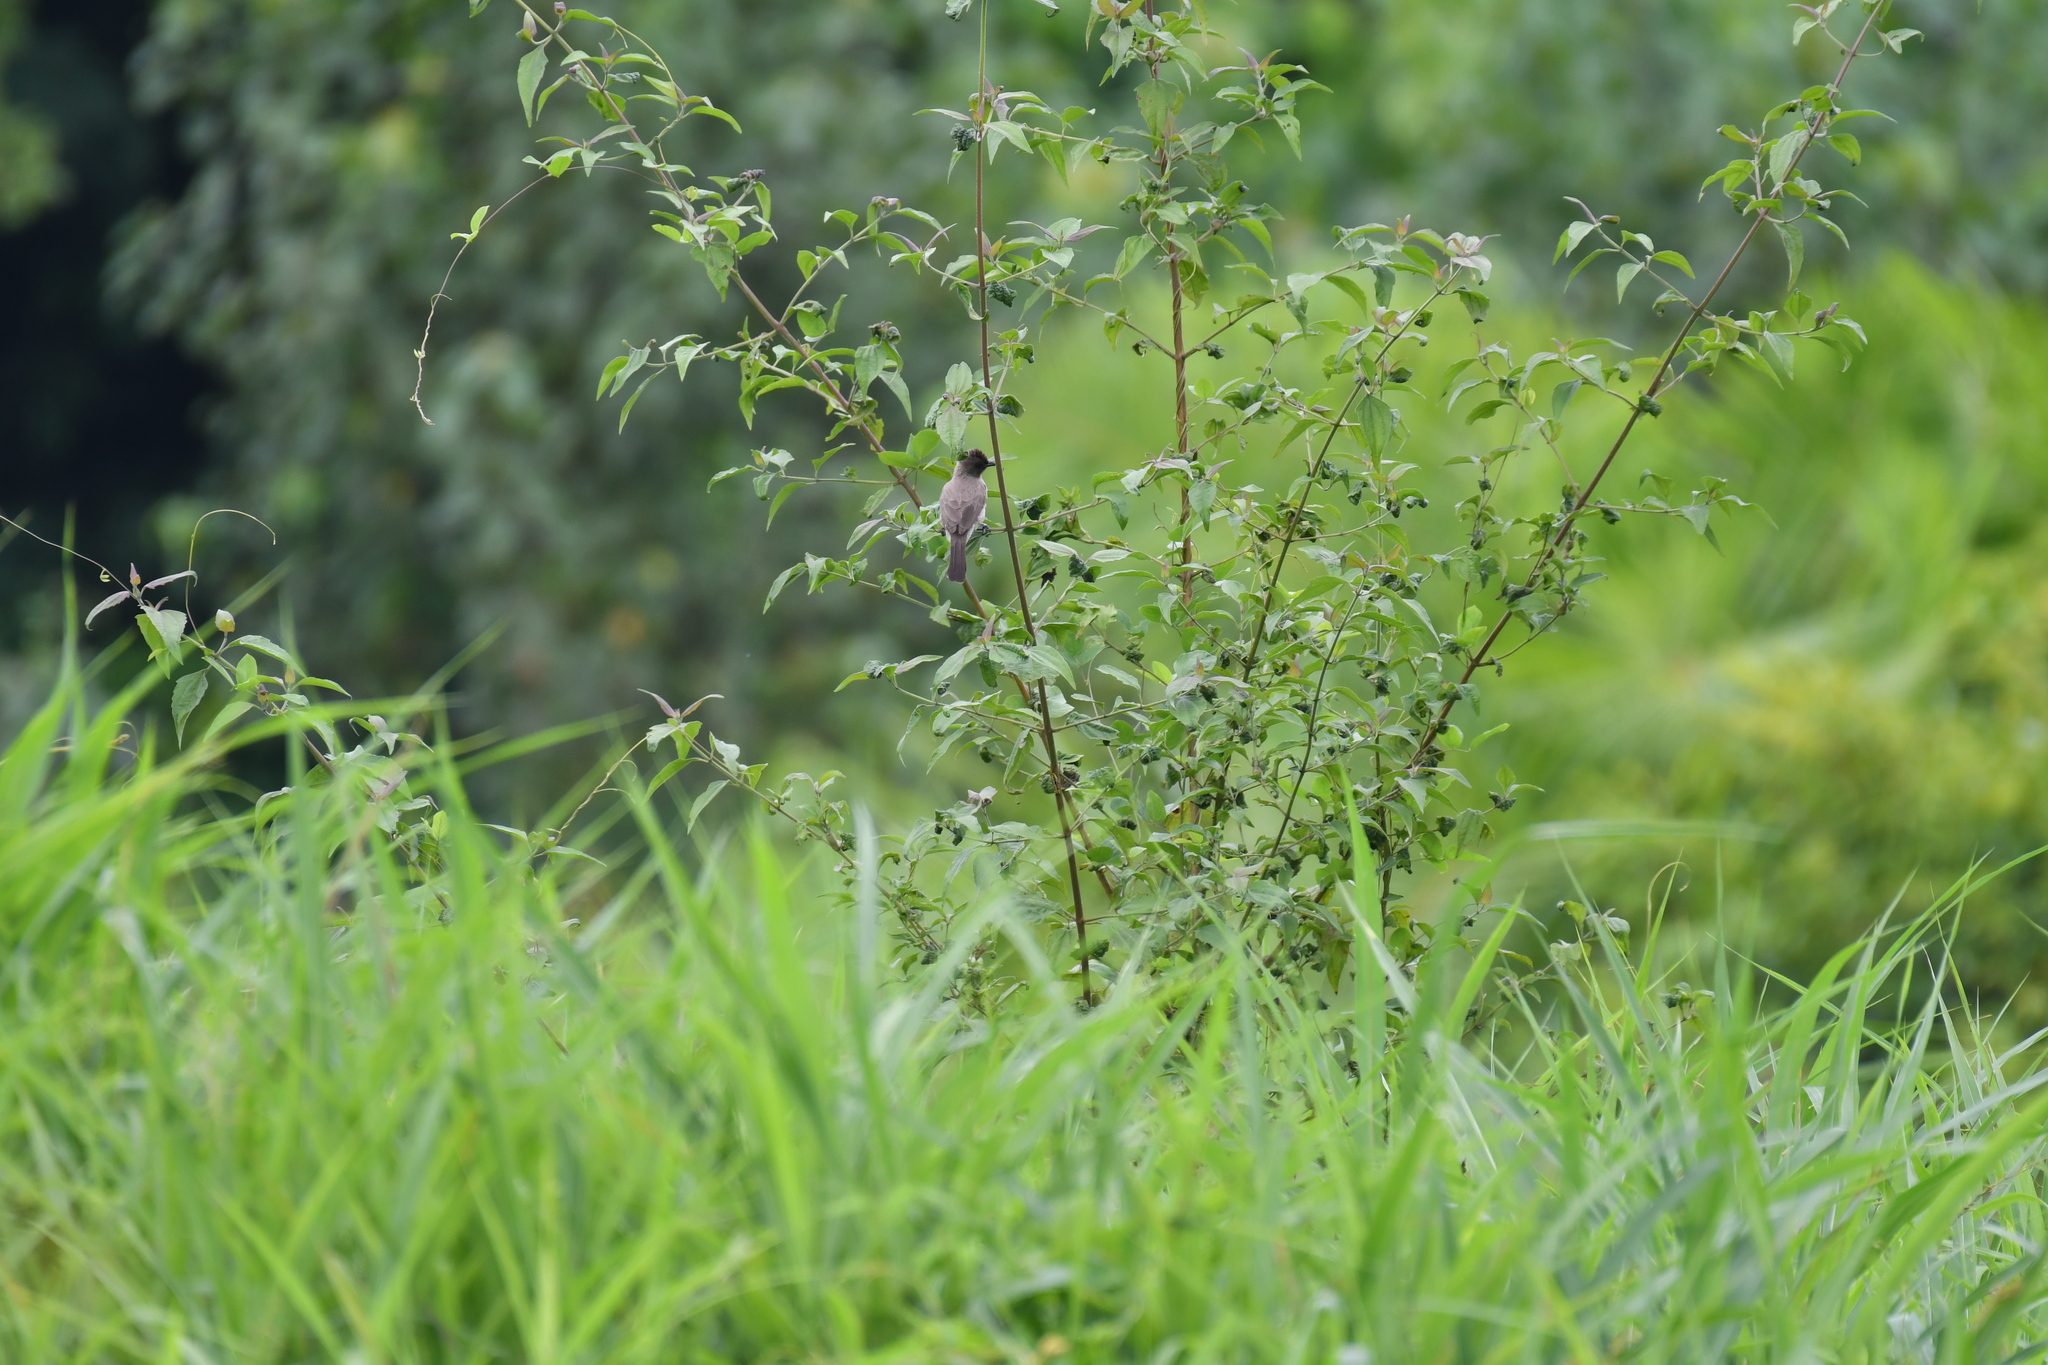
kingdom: Animalia
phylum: Chordata
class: Aves
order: Passeriformes
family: Pycnonotidae
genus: Pycnonotus
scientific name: Pycnonotus barbatus
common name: Common bulbul
